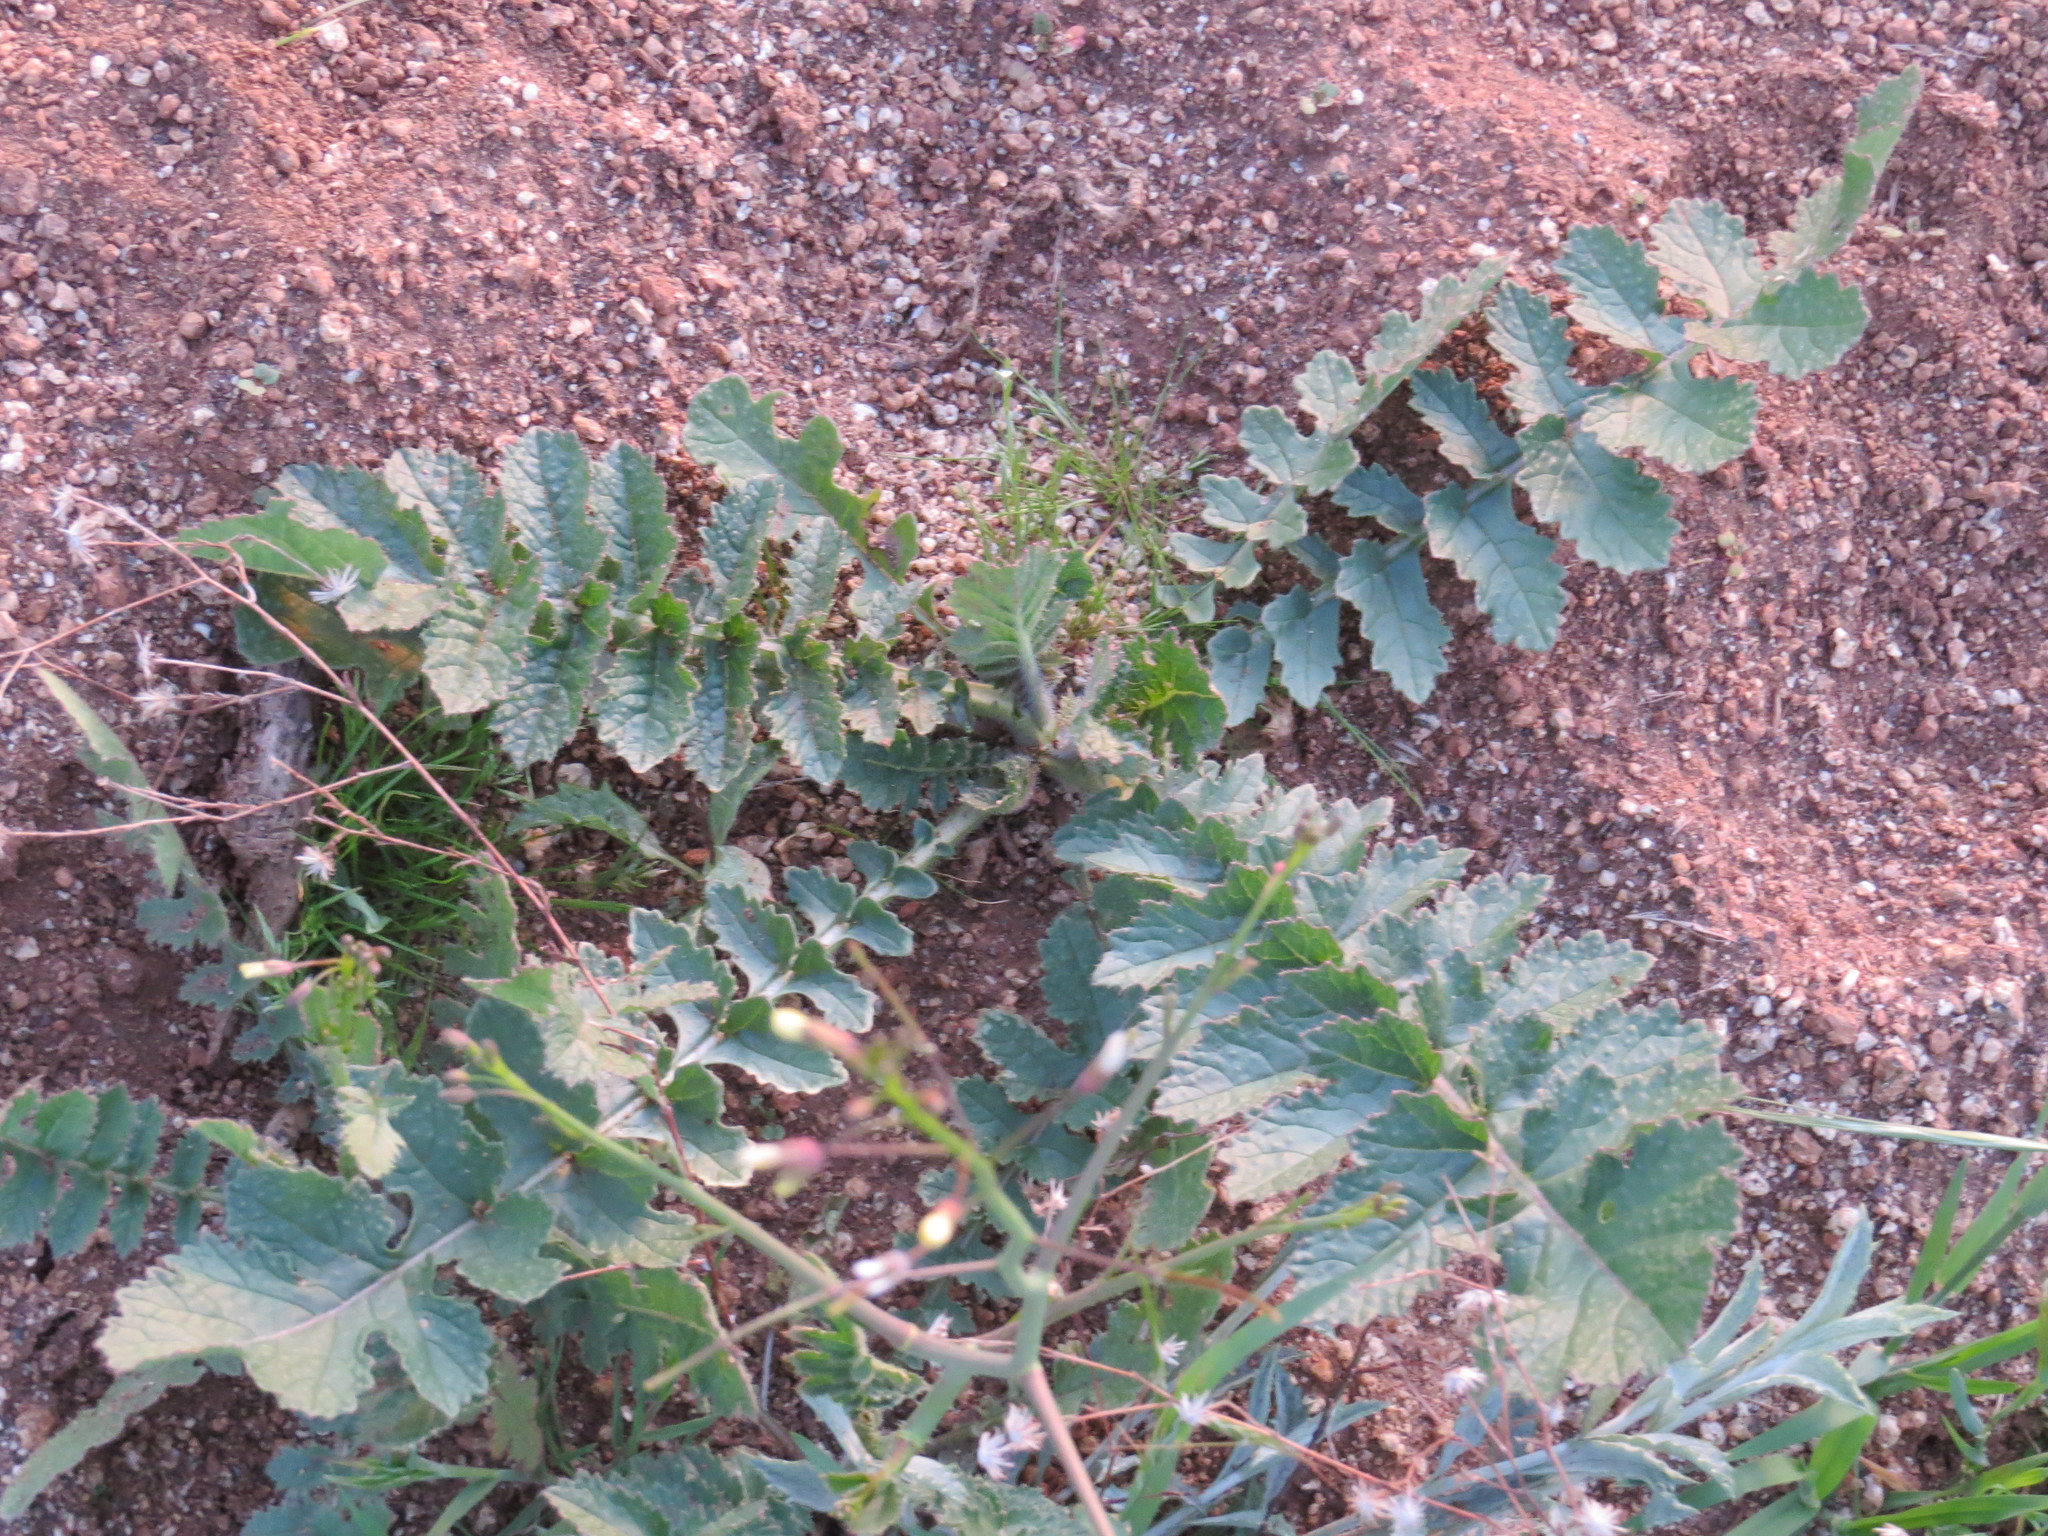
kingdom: Plantae
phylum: Tracheophyta
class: Magnoliopsida
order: Brassicales
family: Brassicaceae
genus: Brassica
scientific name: Brassica tournefortii
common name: Pale cabbage
